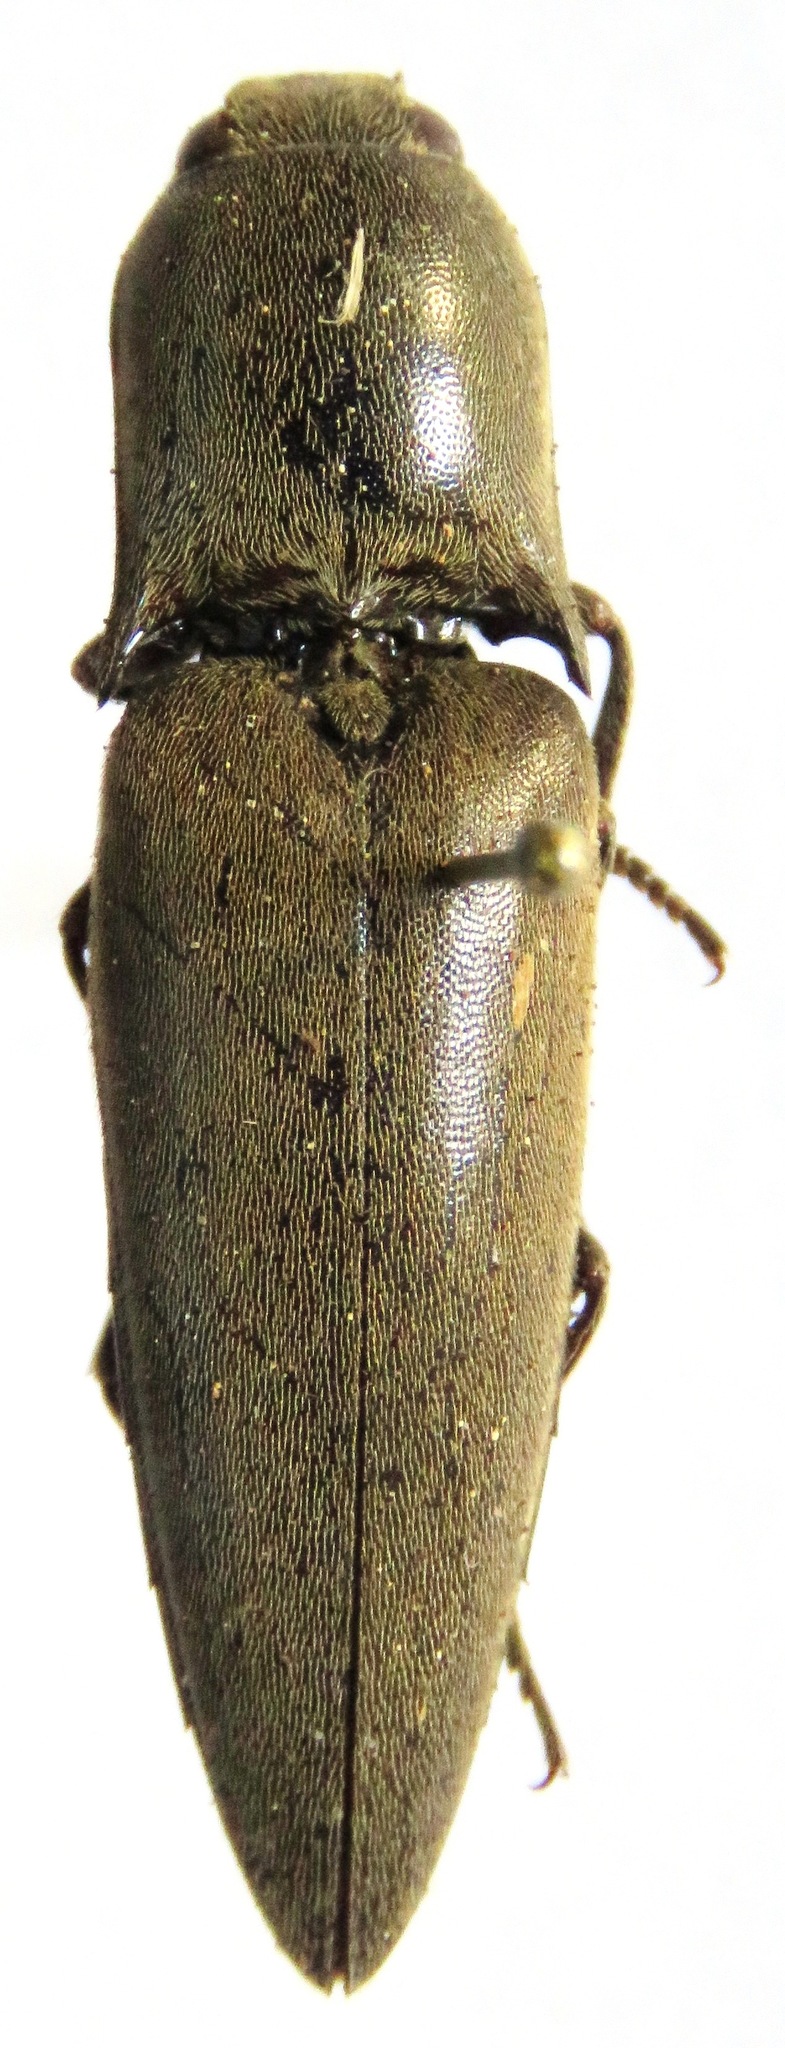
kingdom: Animalia
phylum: Arthropoda
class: Insecta
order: Coleoptera
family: Elateridae
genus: Orthostethus
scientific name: Orthostethus infuscatus
